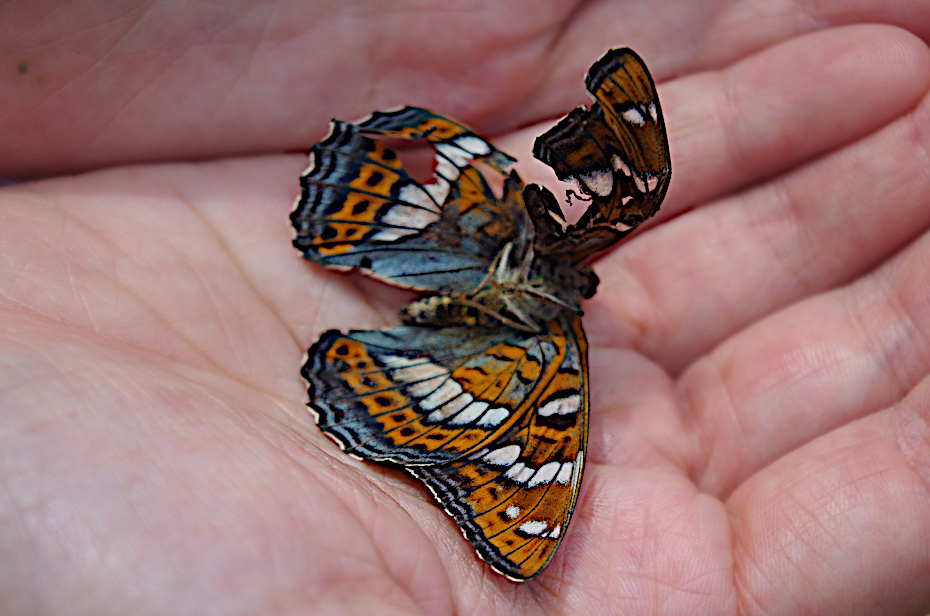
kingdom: Animalia
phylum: Arthropoda
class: Insecta
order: Lepidoptera
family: Nymphalidae
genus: Limenitis
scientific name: Limenitis populi
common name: Poplar admiral
